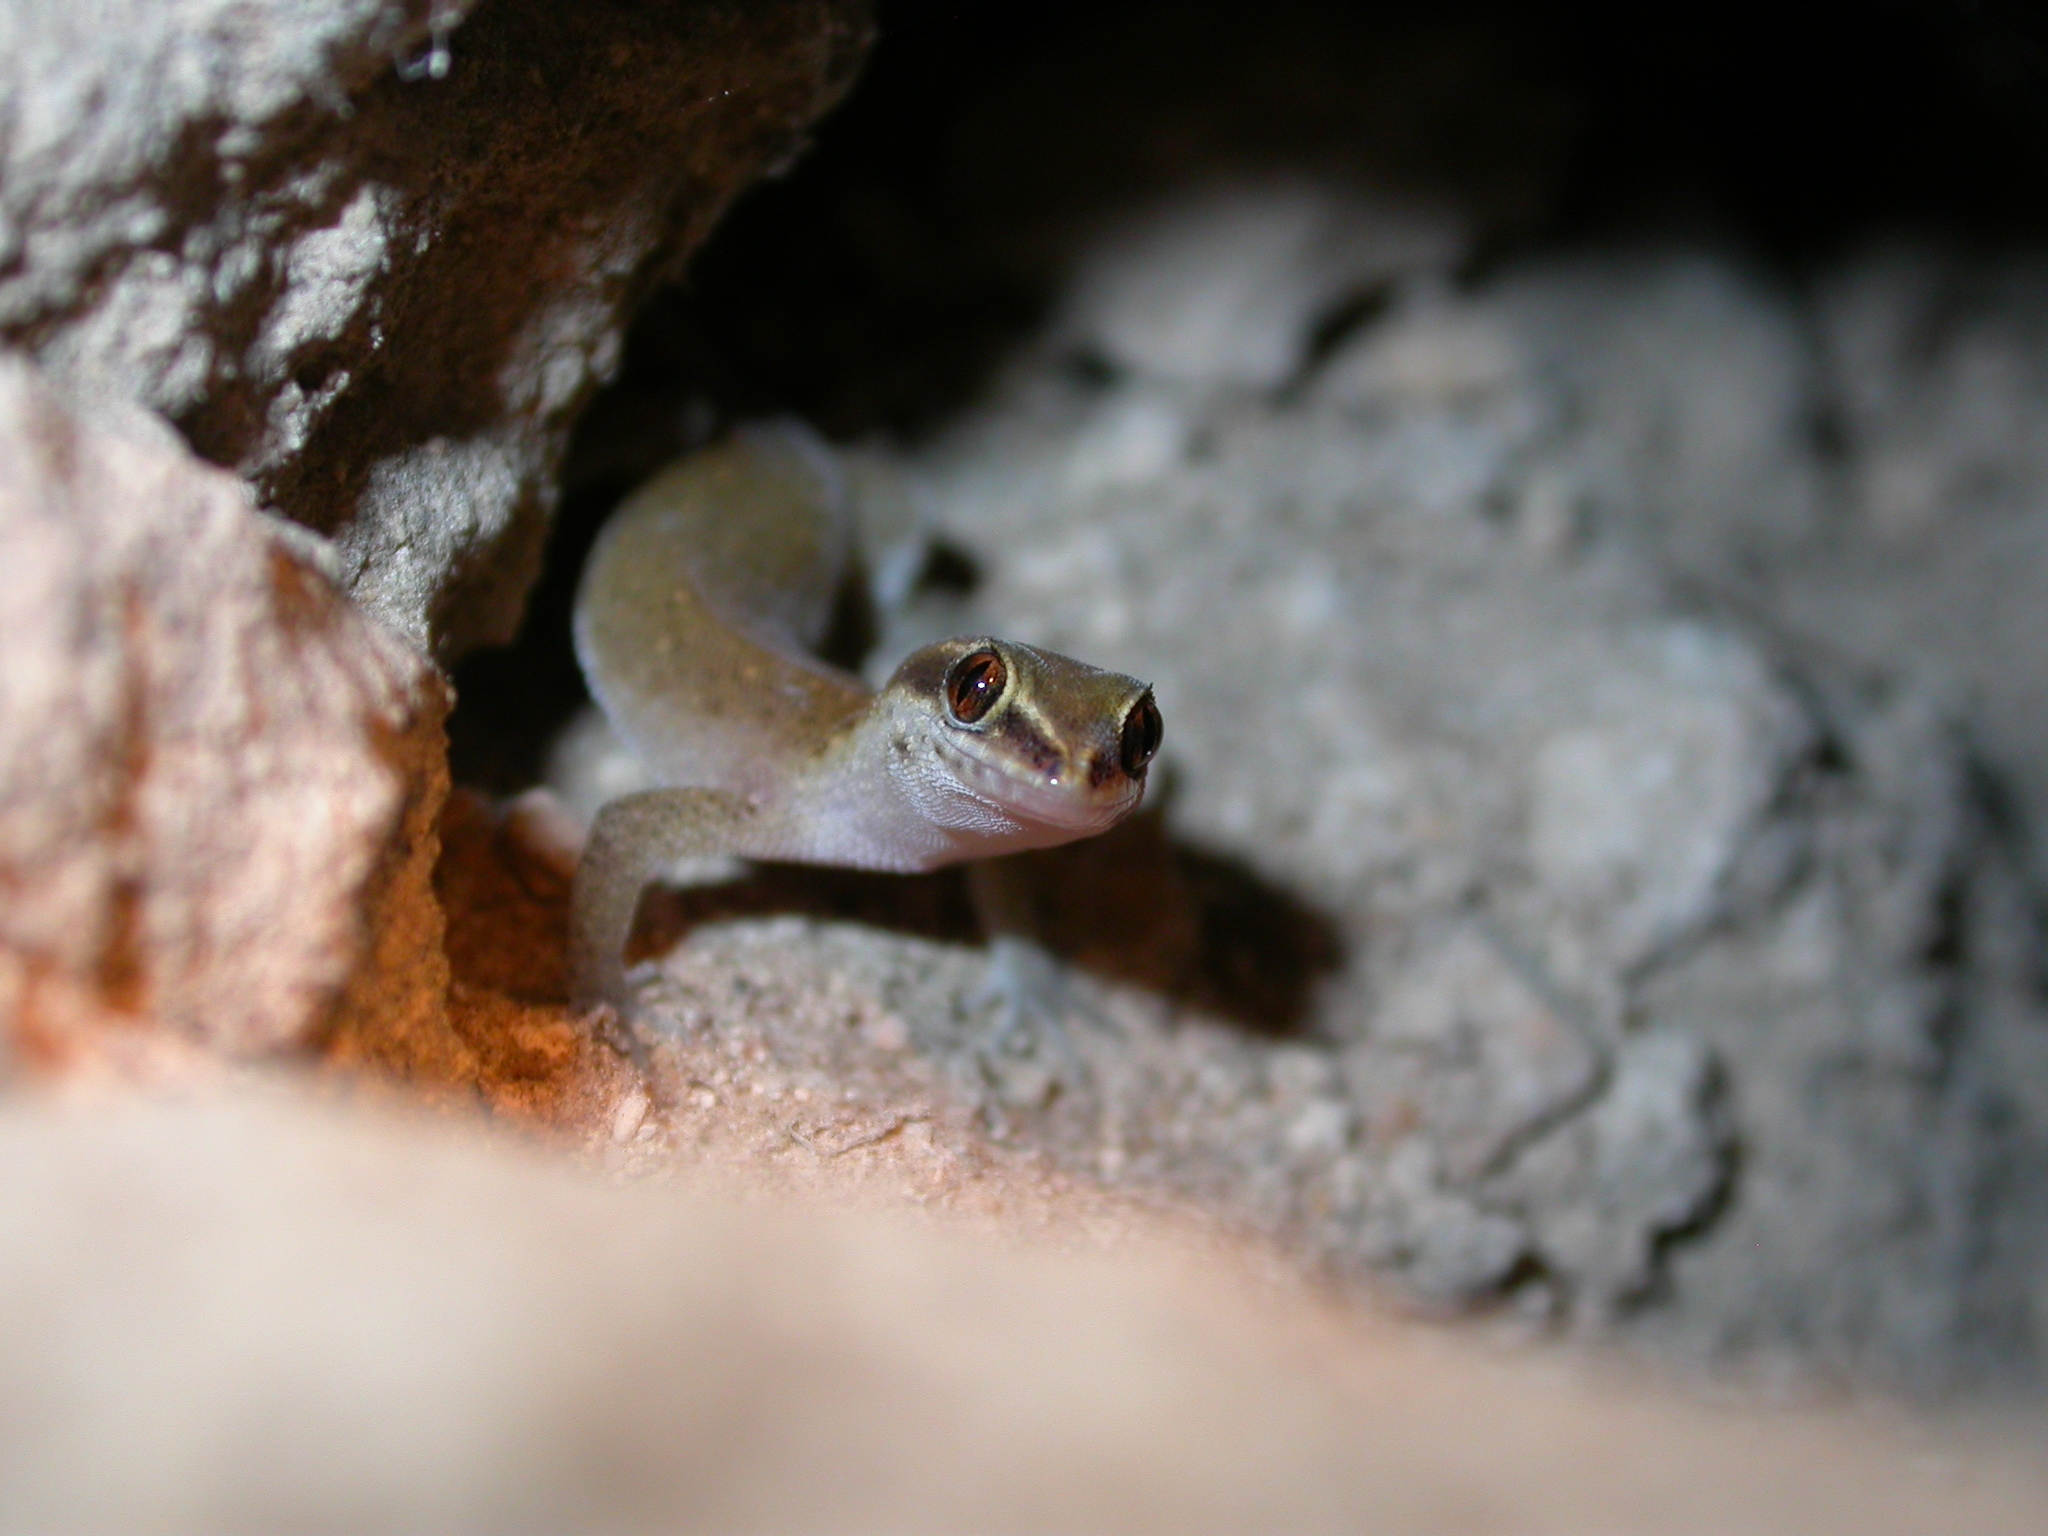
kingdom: Animalia
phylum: Chordata
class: Squamata
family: Sphaerodactylidae
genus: Saurodactylus
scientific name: Saurodactylus brosseti
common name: Morocco lizard-fingered gecko
